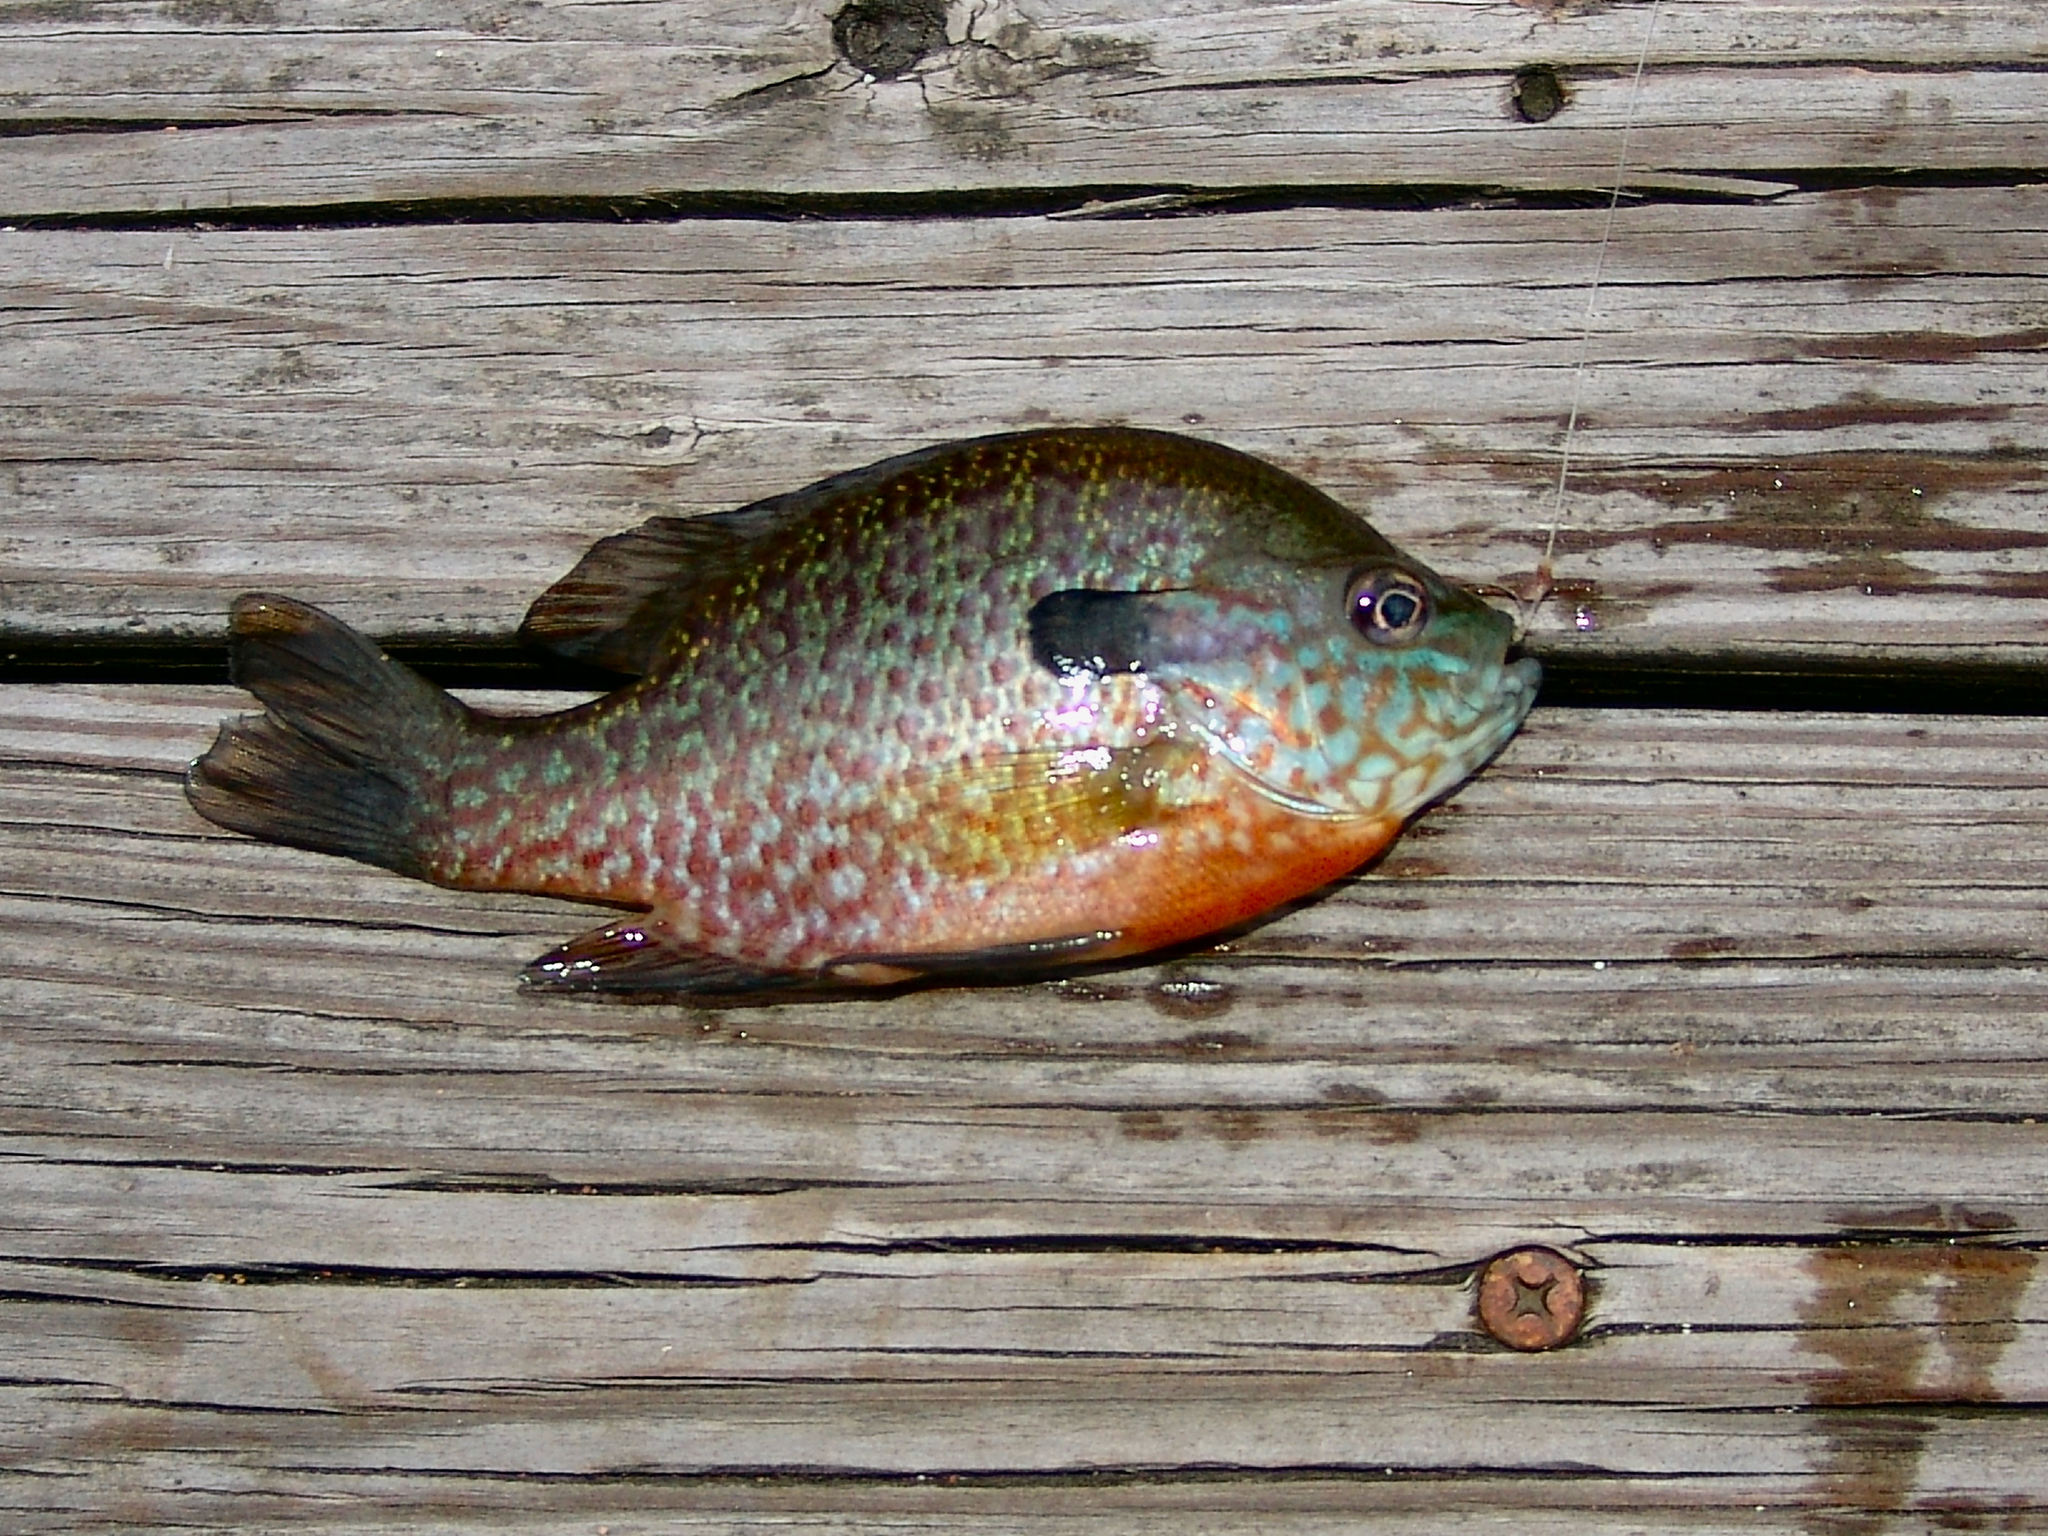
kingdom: Animalia
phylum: Chordata
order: Perciformes
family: Centrarchidae
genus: Lepomis
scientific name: Lepomis
